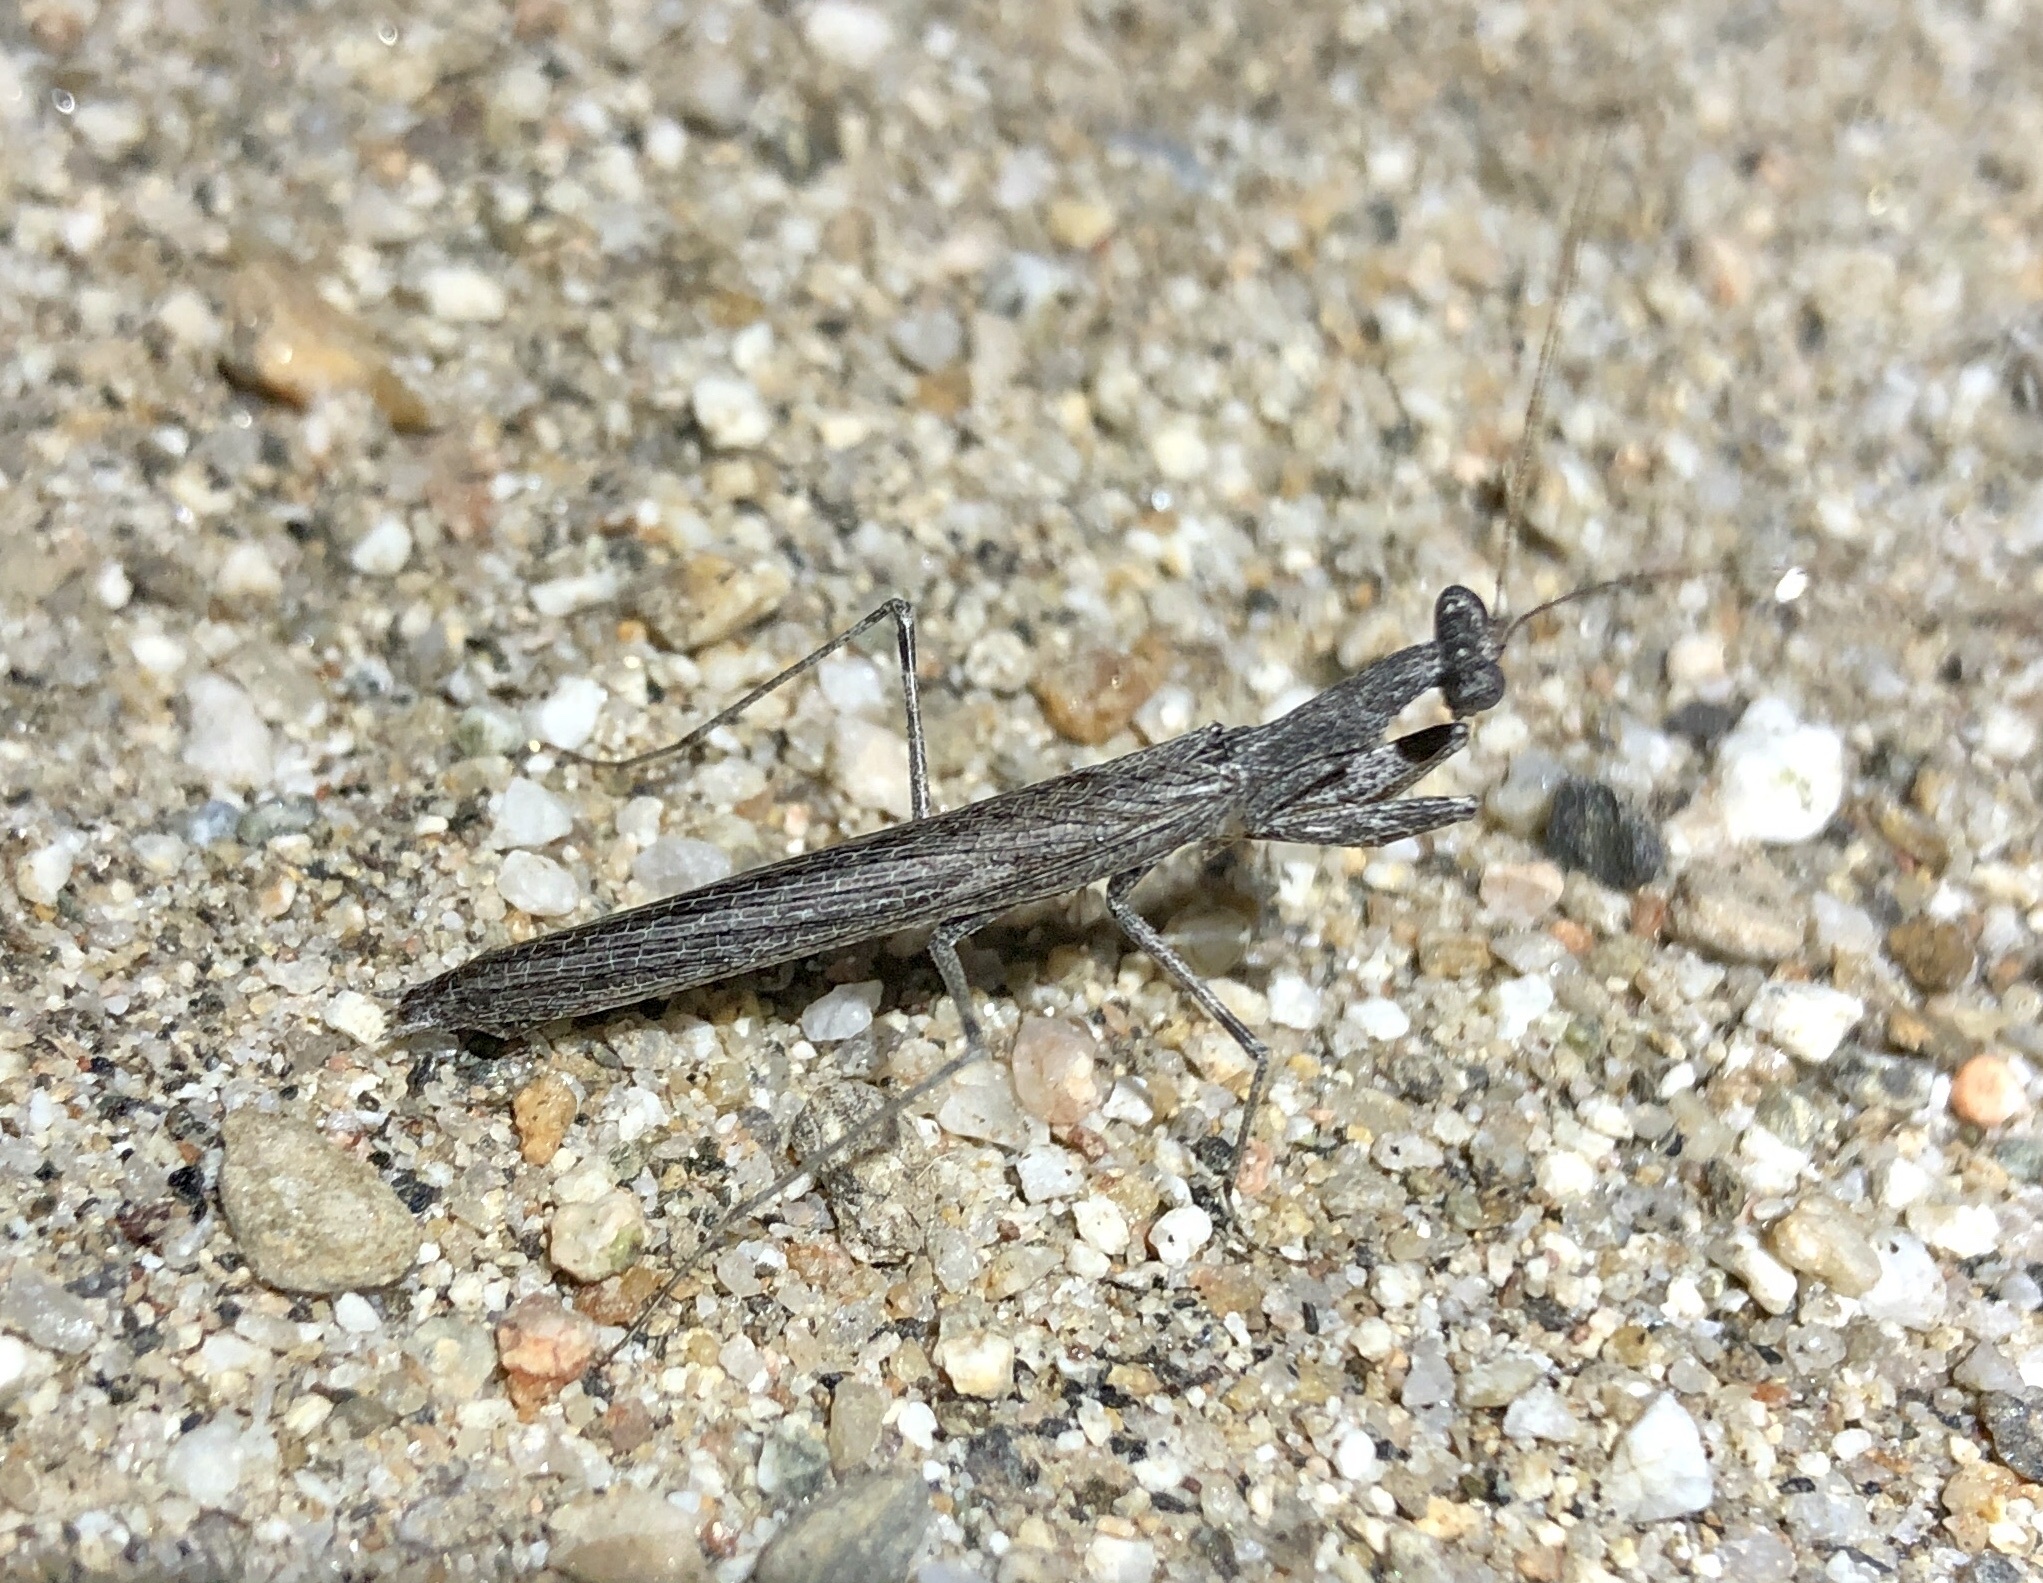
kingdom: Animalia
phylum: Arthropoda
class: Insecta
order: Mantodea
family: Amelidae
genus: Litaneutria
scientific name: Litaneutria ocularis
